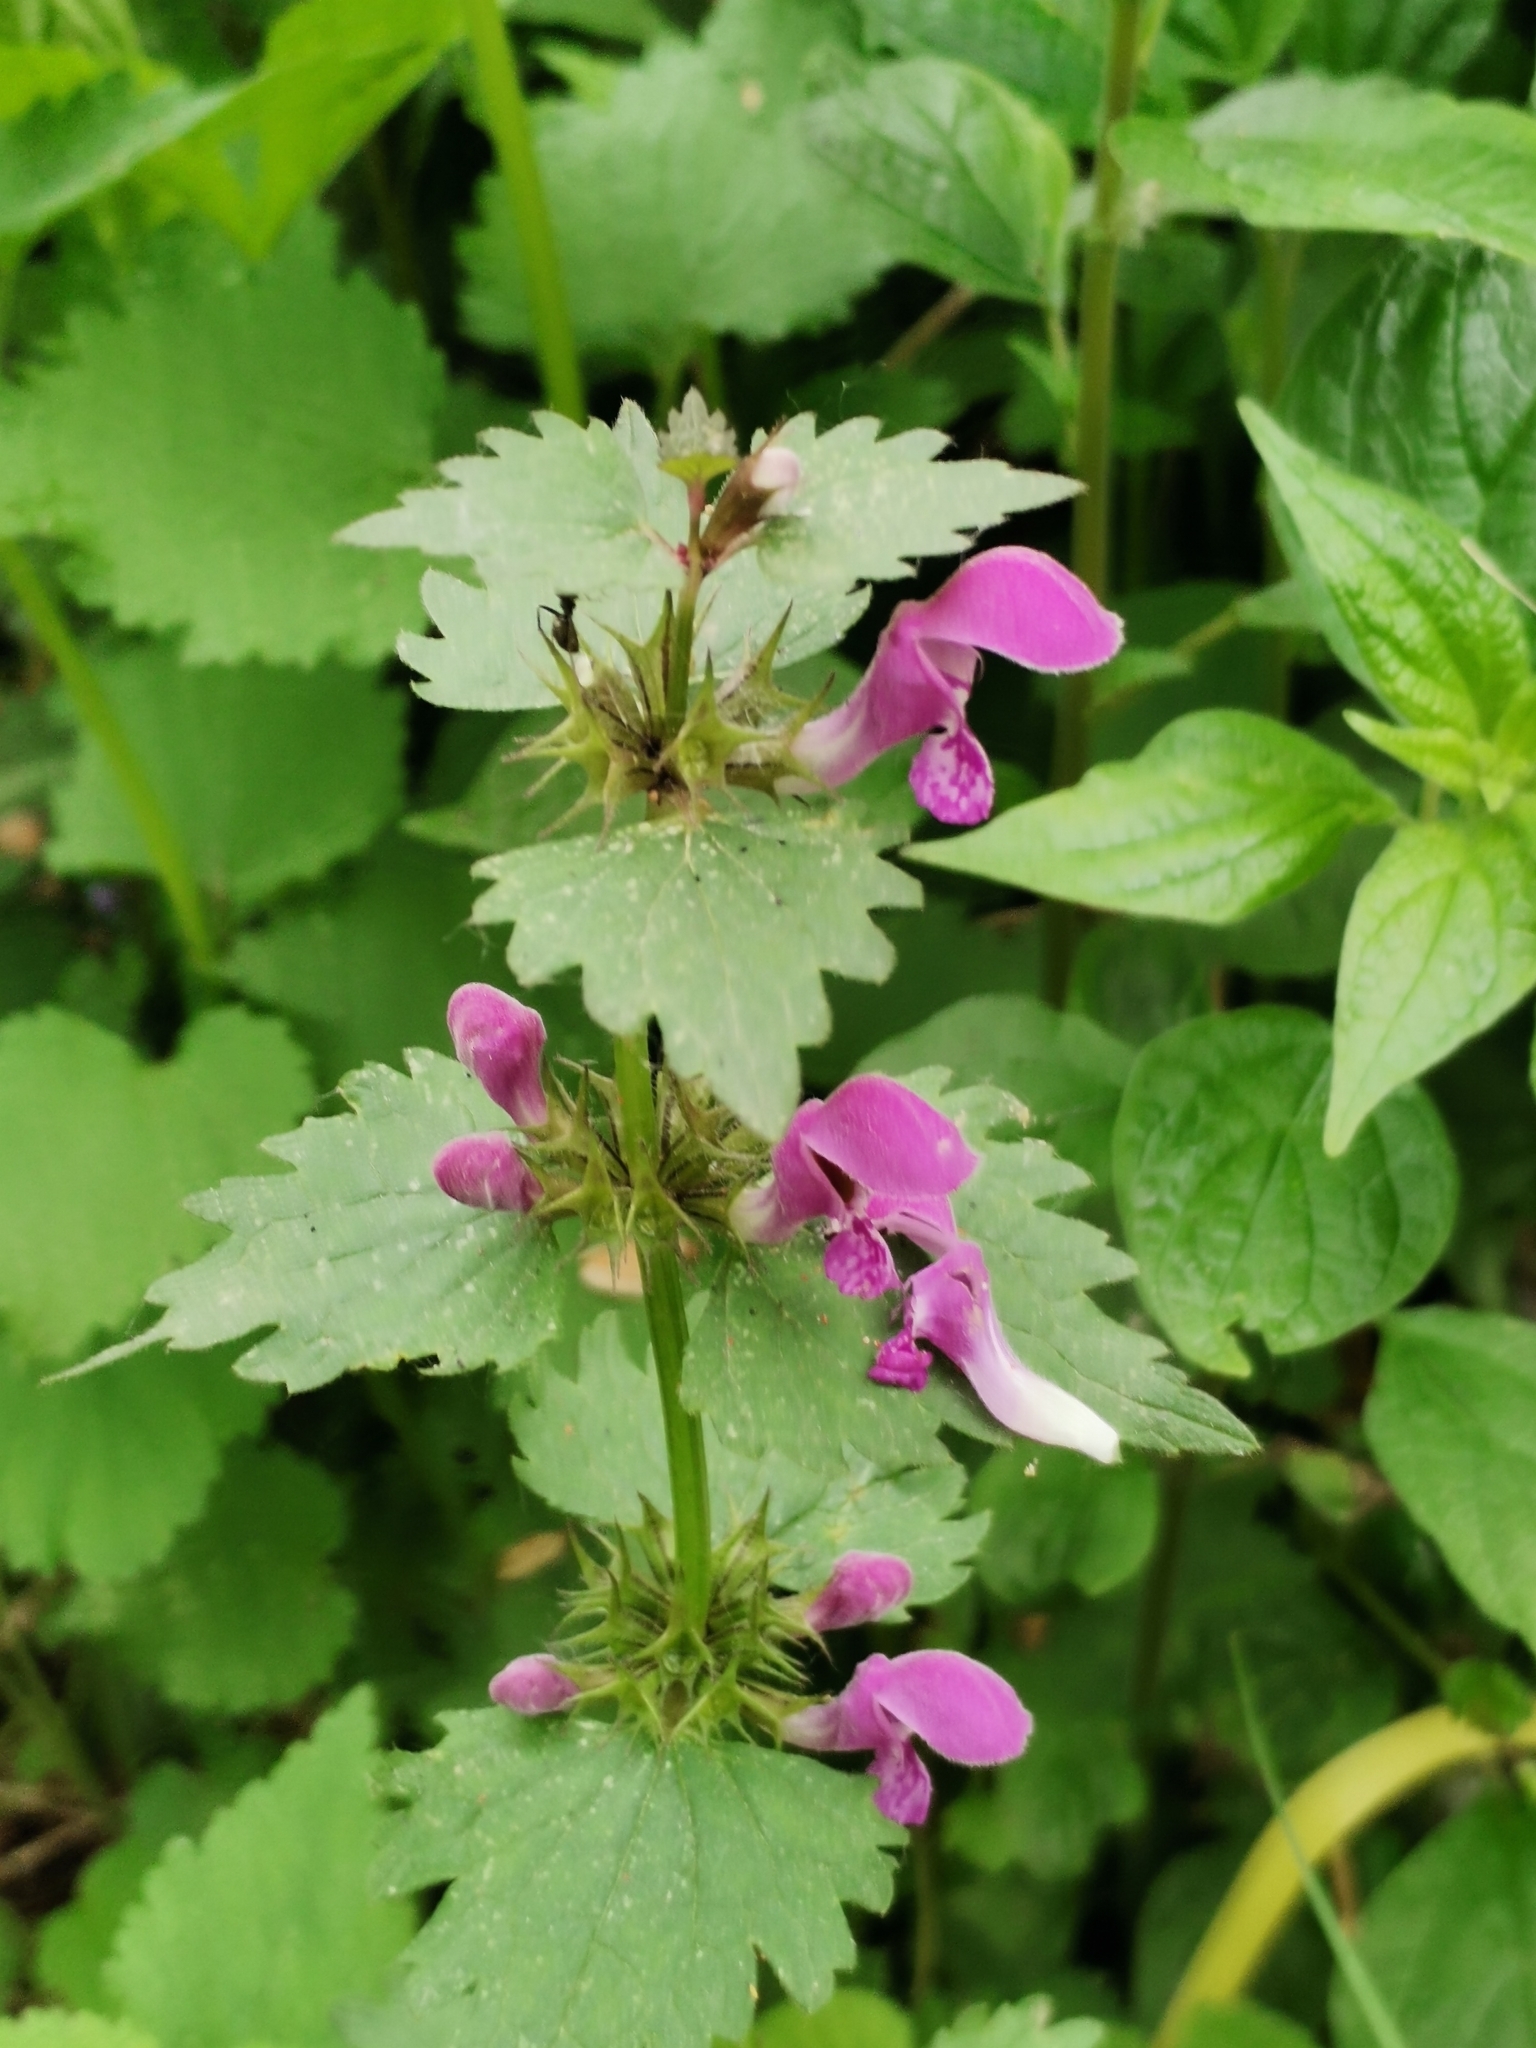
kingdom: Plantae
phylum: Tracheophyta
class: Magnoliopsida
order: Lamiales
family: Lamiaceae
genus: Lamium
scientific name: Lamium maculatum
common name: Spotted dead-nettle
